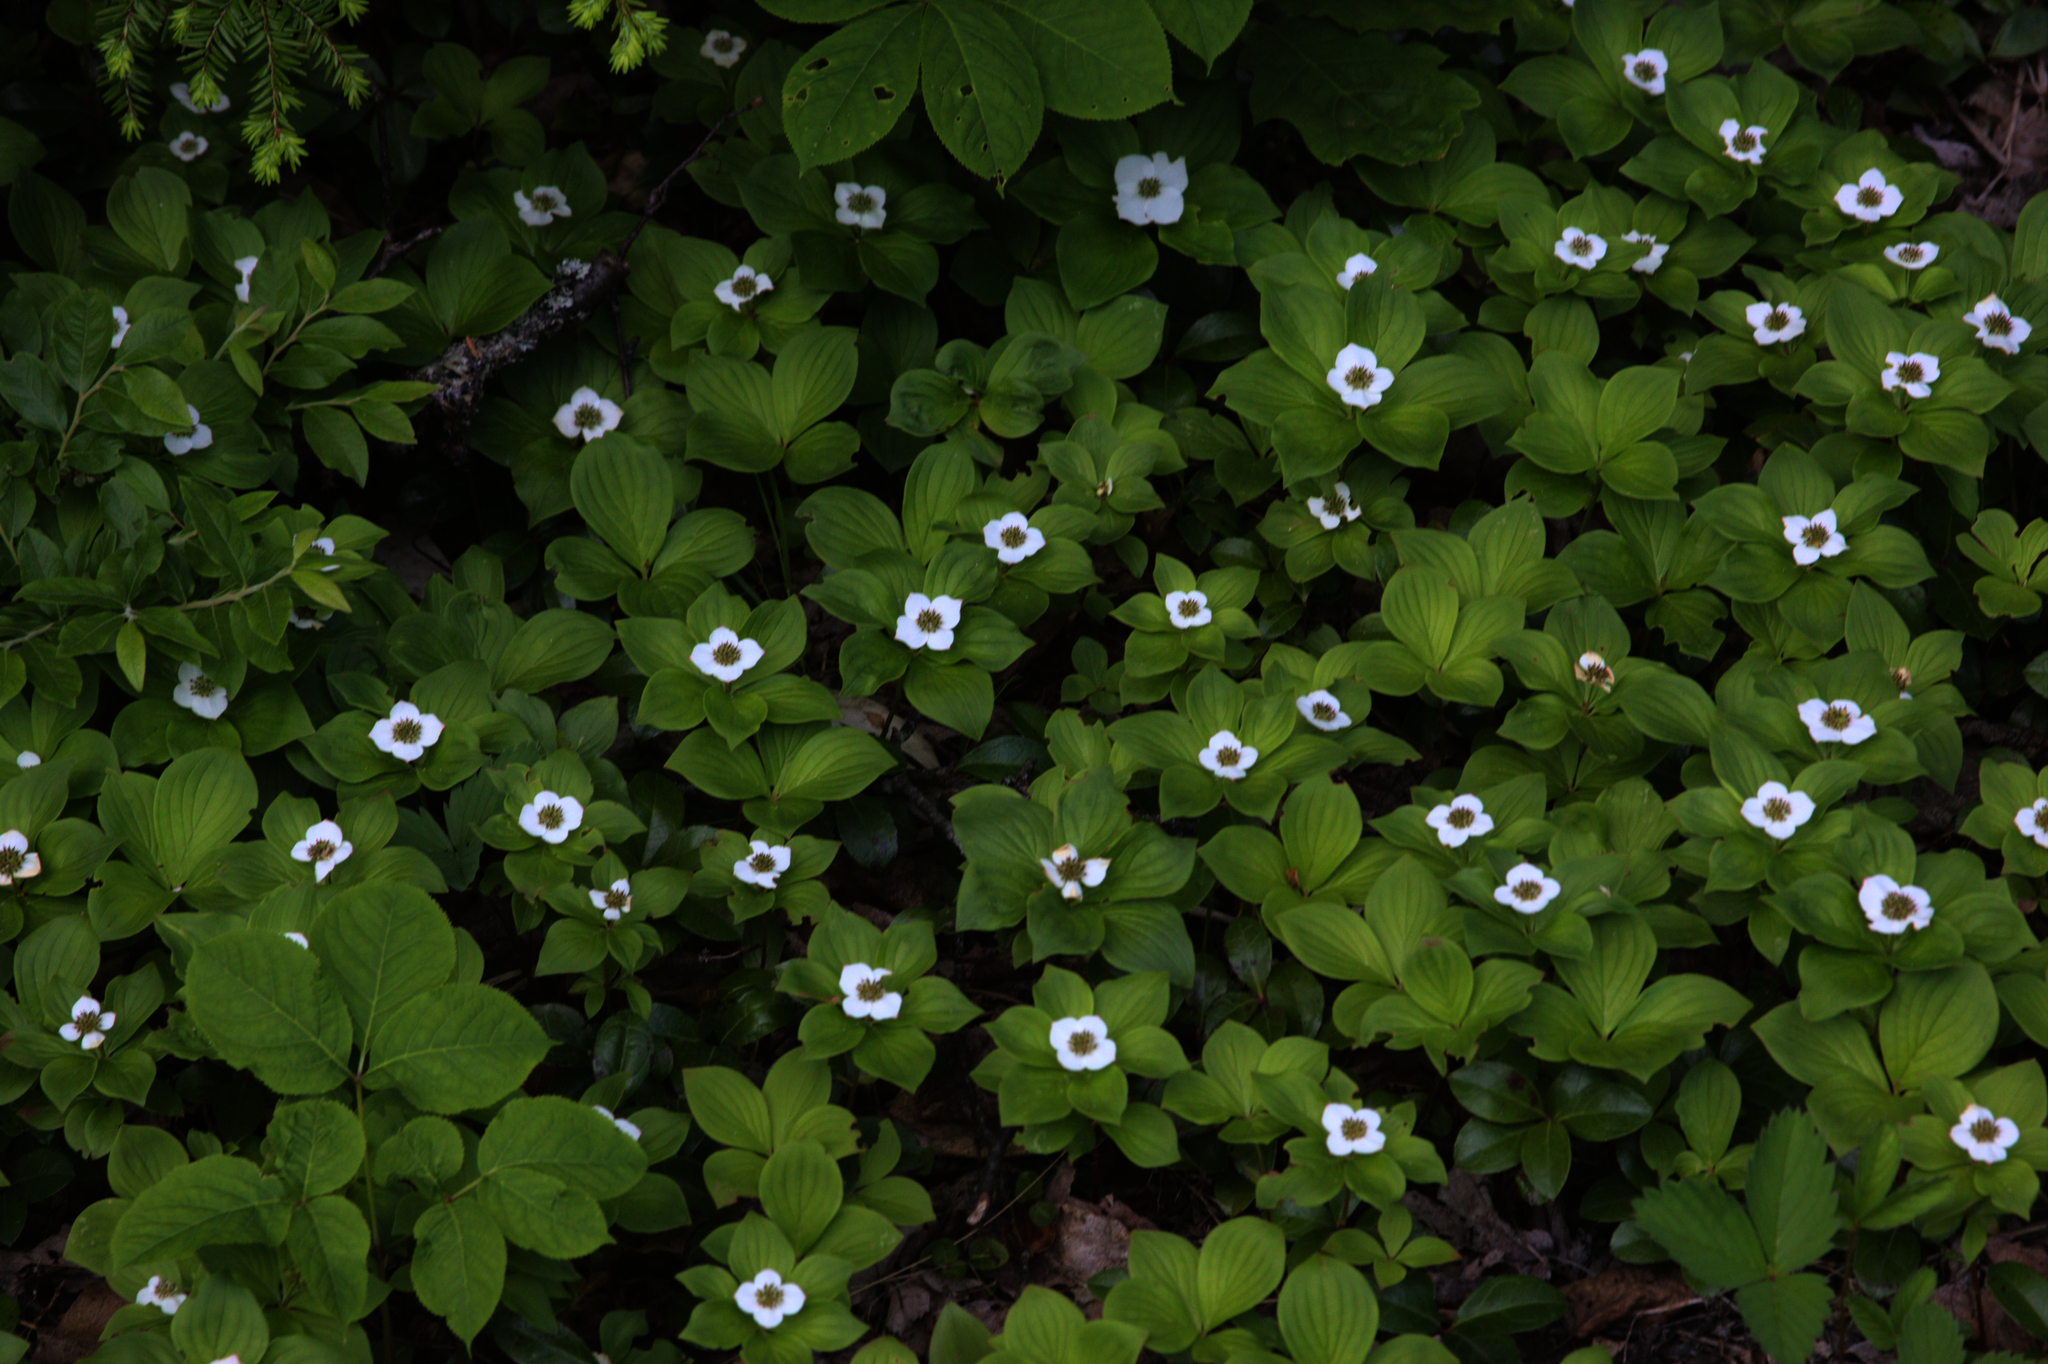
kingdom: Plantae
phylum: Tracheophyta
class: Magnoliopsida
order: Ericales
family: Ericaceae
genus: Gaultheria
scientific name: Gaultheria procumbens
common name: Checkerberry
